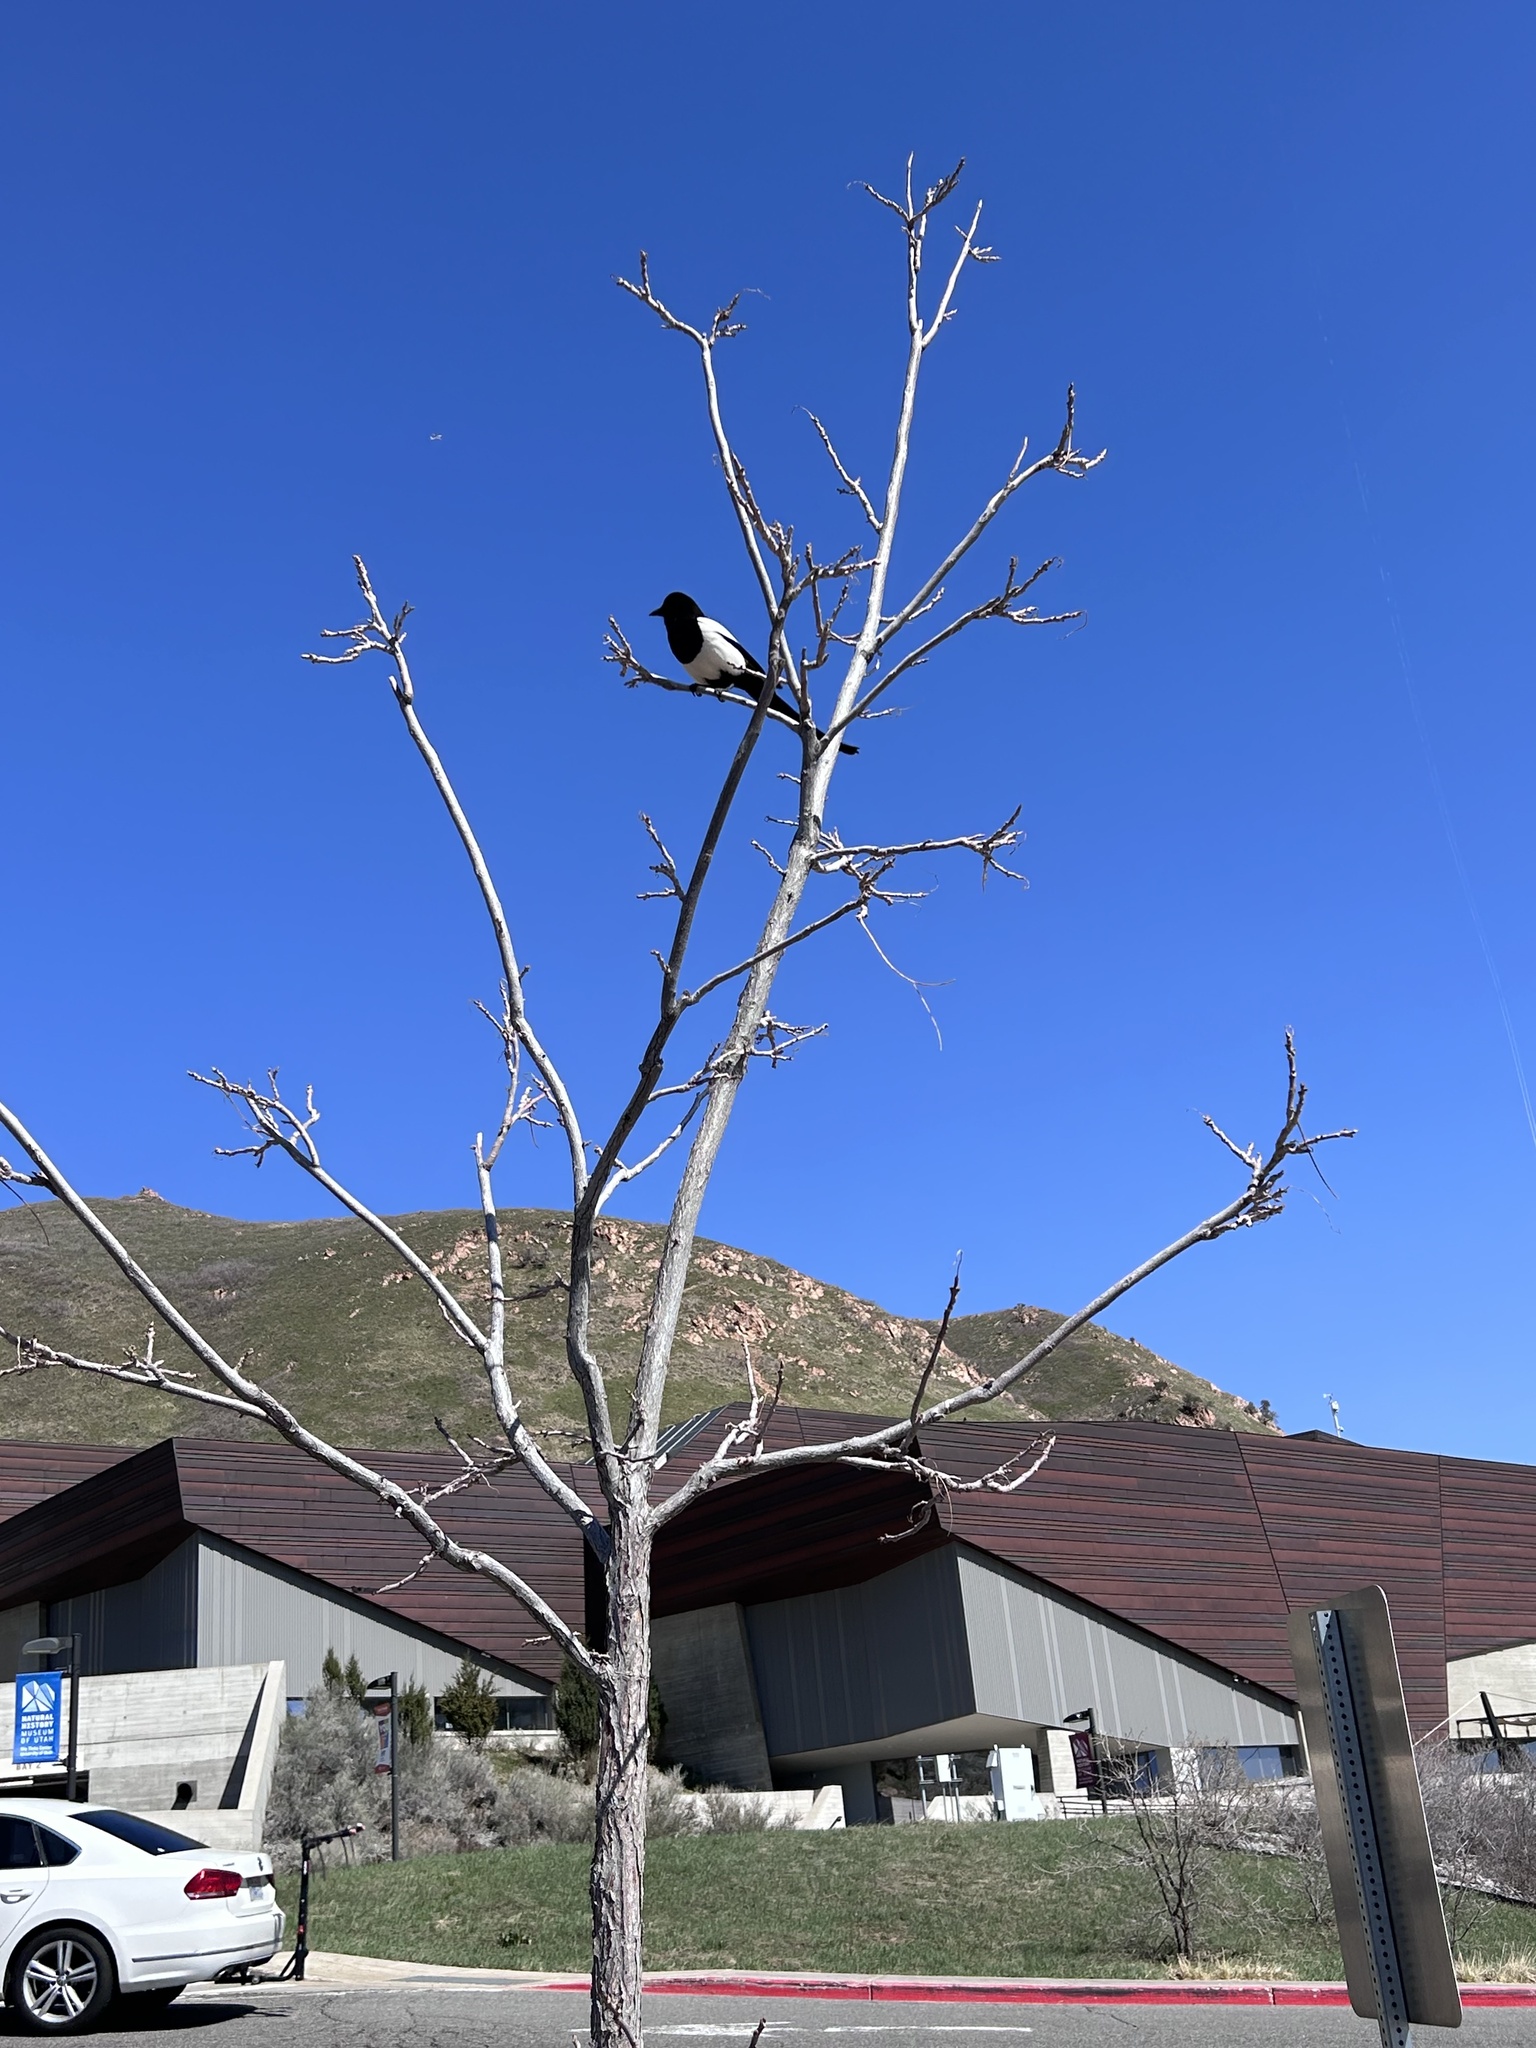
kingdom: Animalia
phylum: Chordata
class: Aves
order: Passeriformes
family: Corvidae
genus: Pica
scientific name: Pica hudsonia
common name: Black-billed magpie
